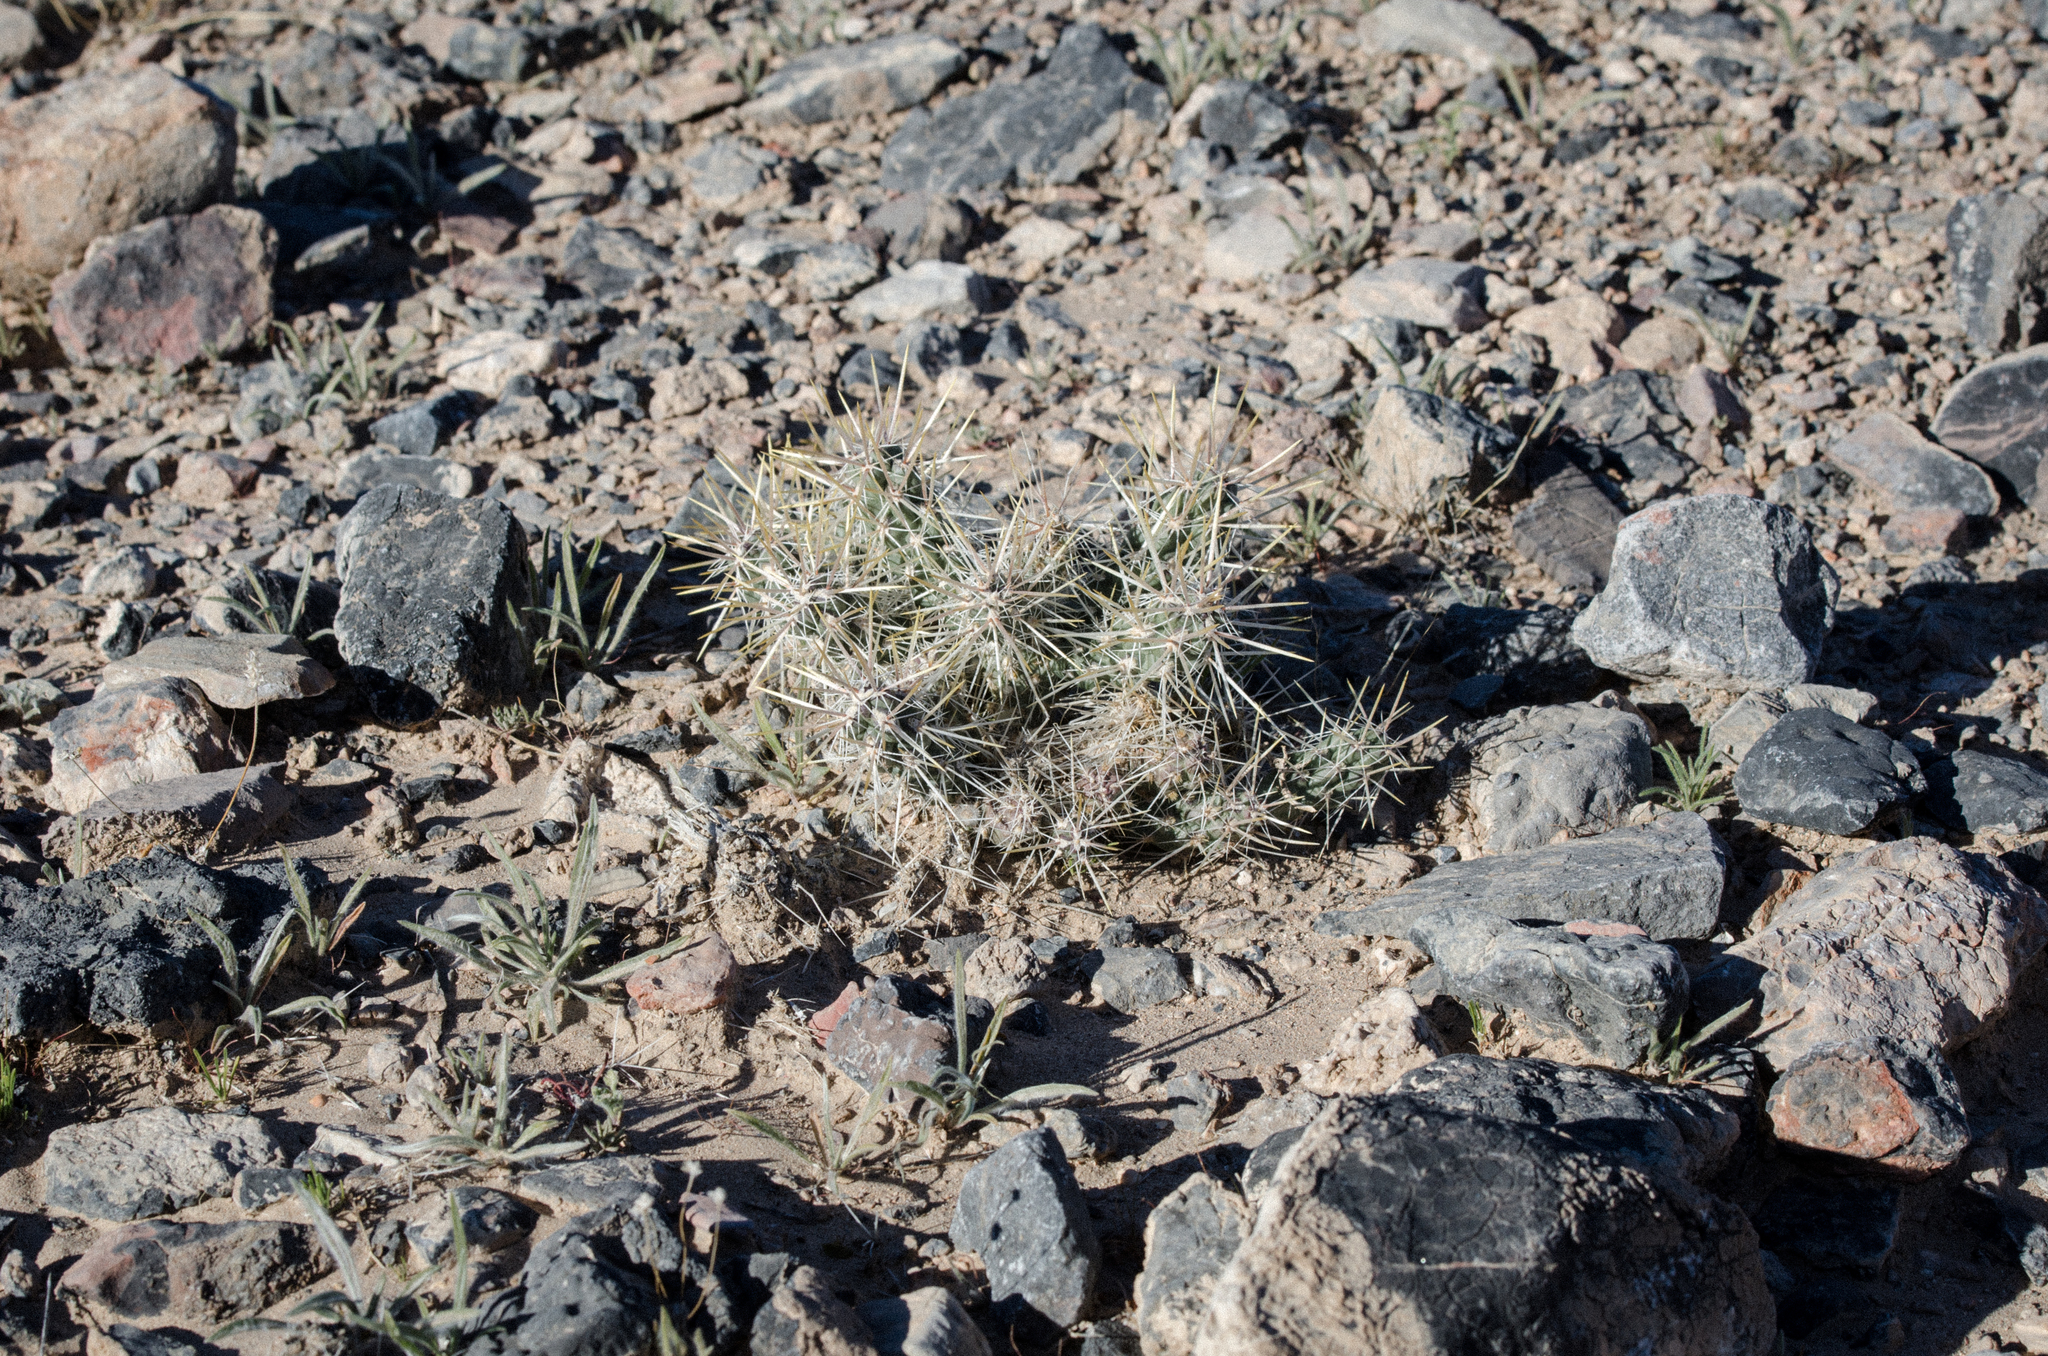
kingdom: Plantae
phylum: Tracheophyta
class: Magnoliopsida
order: Caryophyllales
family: Cactaceae
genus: Cylindropuntia
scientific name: Cylindropuntia echinocarpa
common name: Ground cholla
